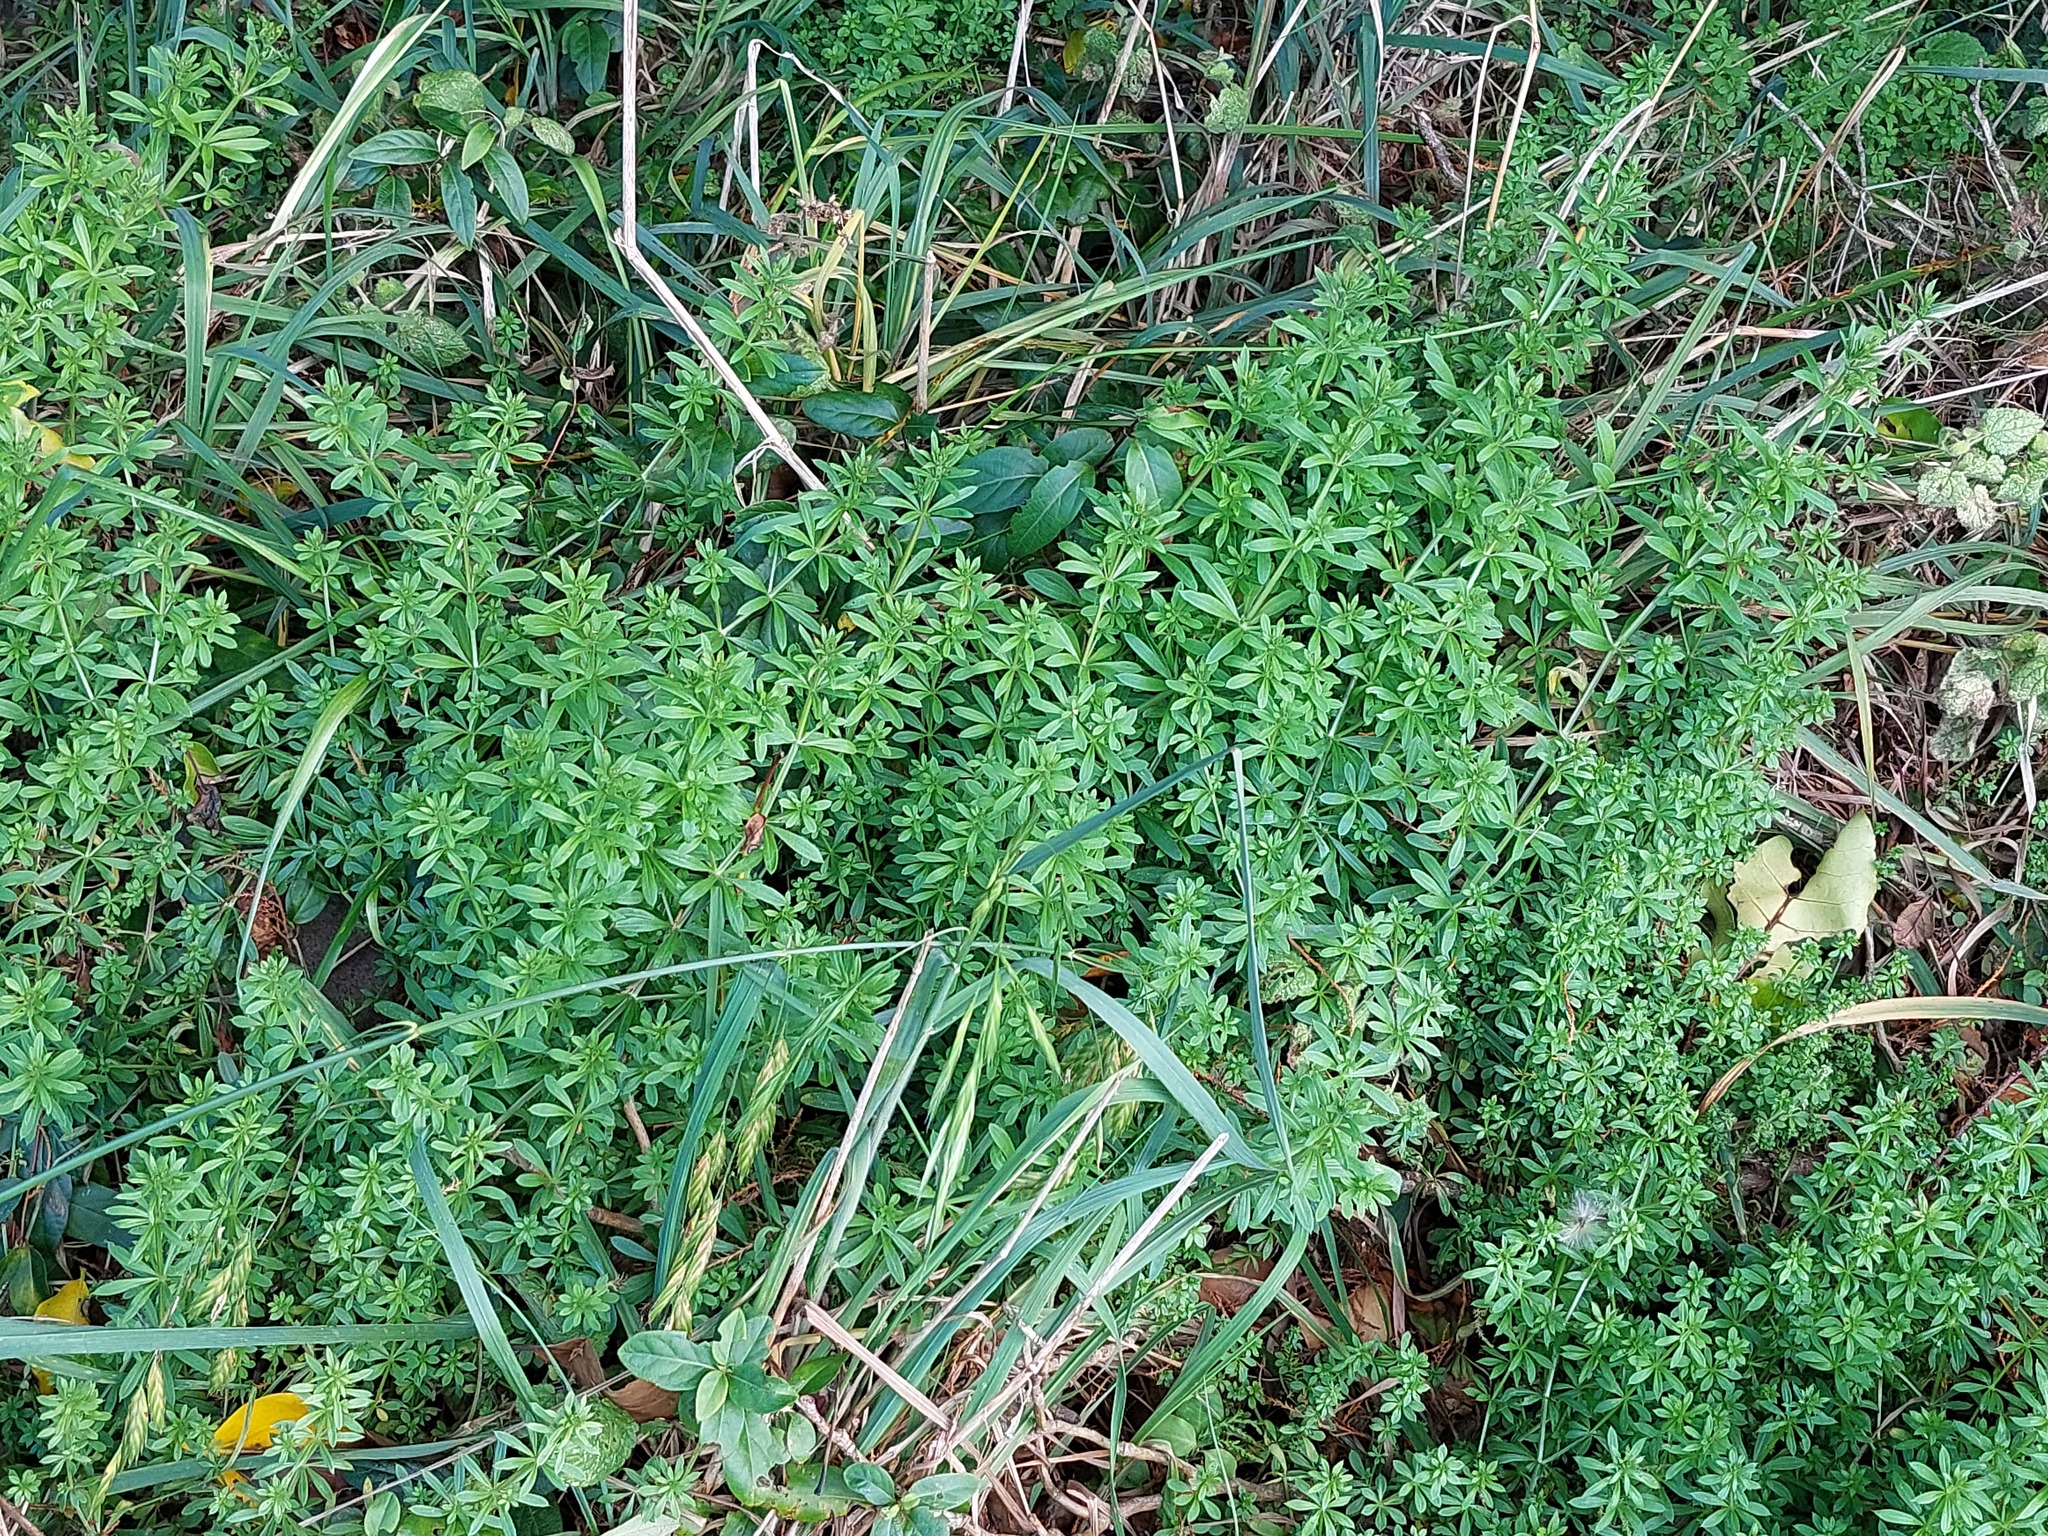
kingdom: Plantae
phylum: Tracheophyta
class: Magnoliopsida
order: Gentianales
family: Rubiaceae
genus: Galium
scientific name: Galium aparine
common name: Cleavers
